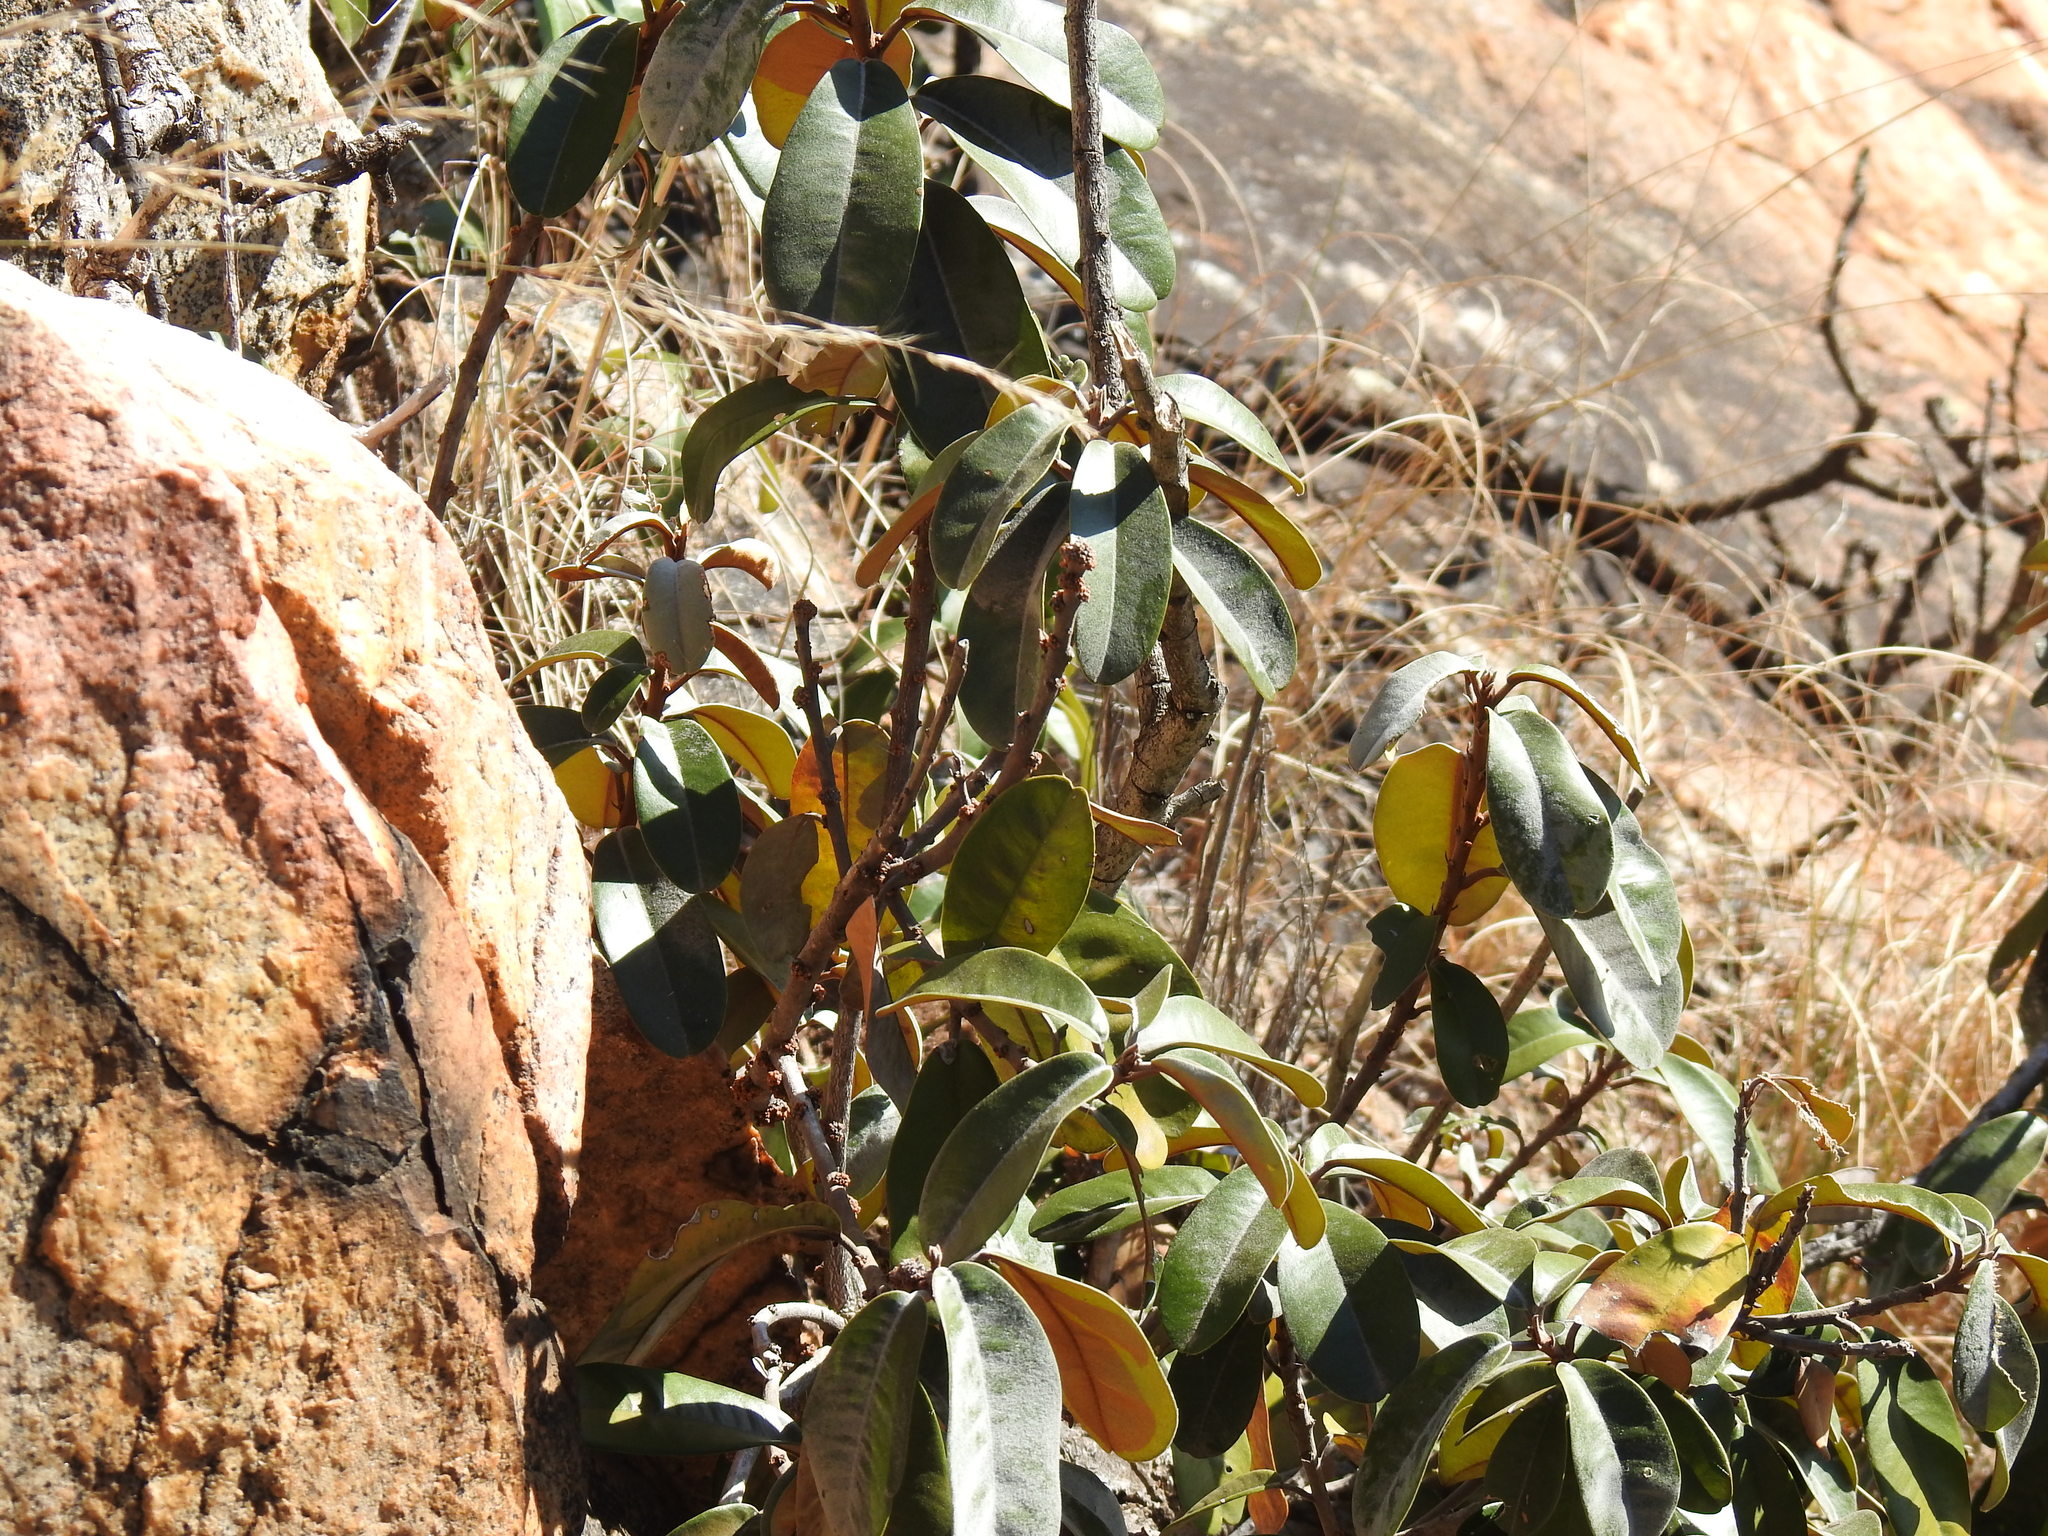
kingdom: Plantae
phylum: Tracheophyta
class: Magnoliopsida
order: Ericales
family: Sapotaceae
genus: Englerophytum
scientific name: Englerophytum magalismontanum
